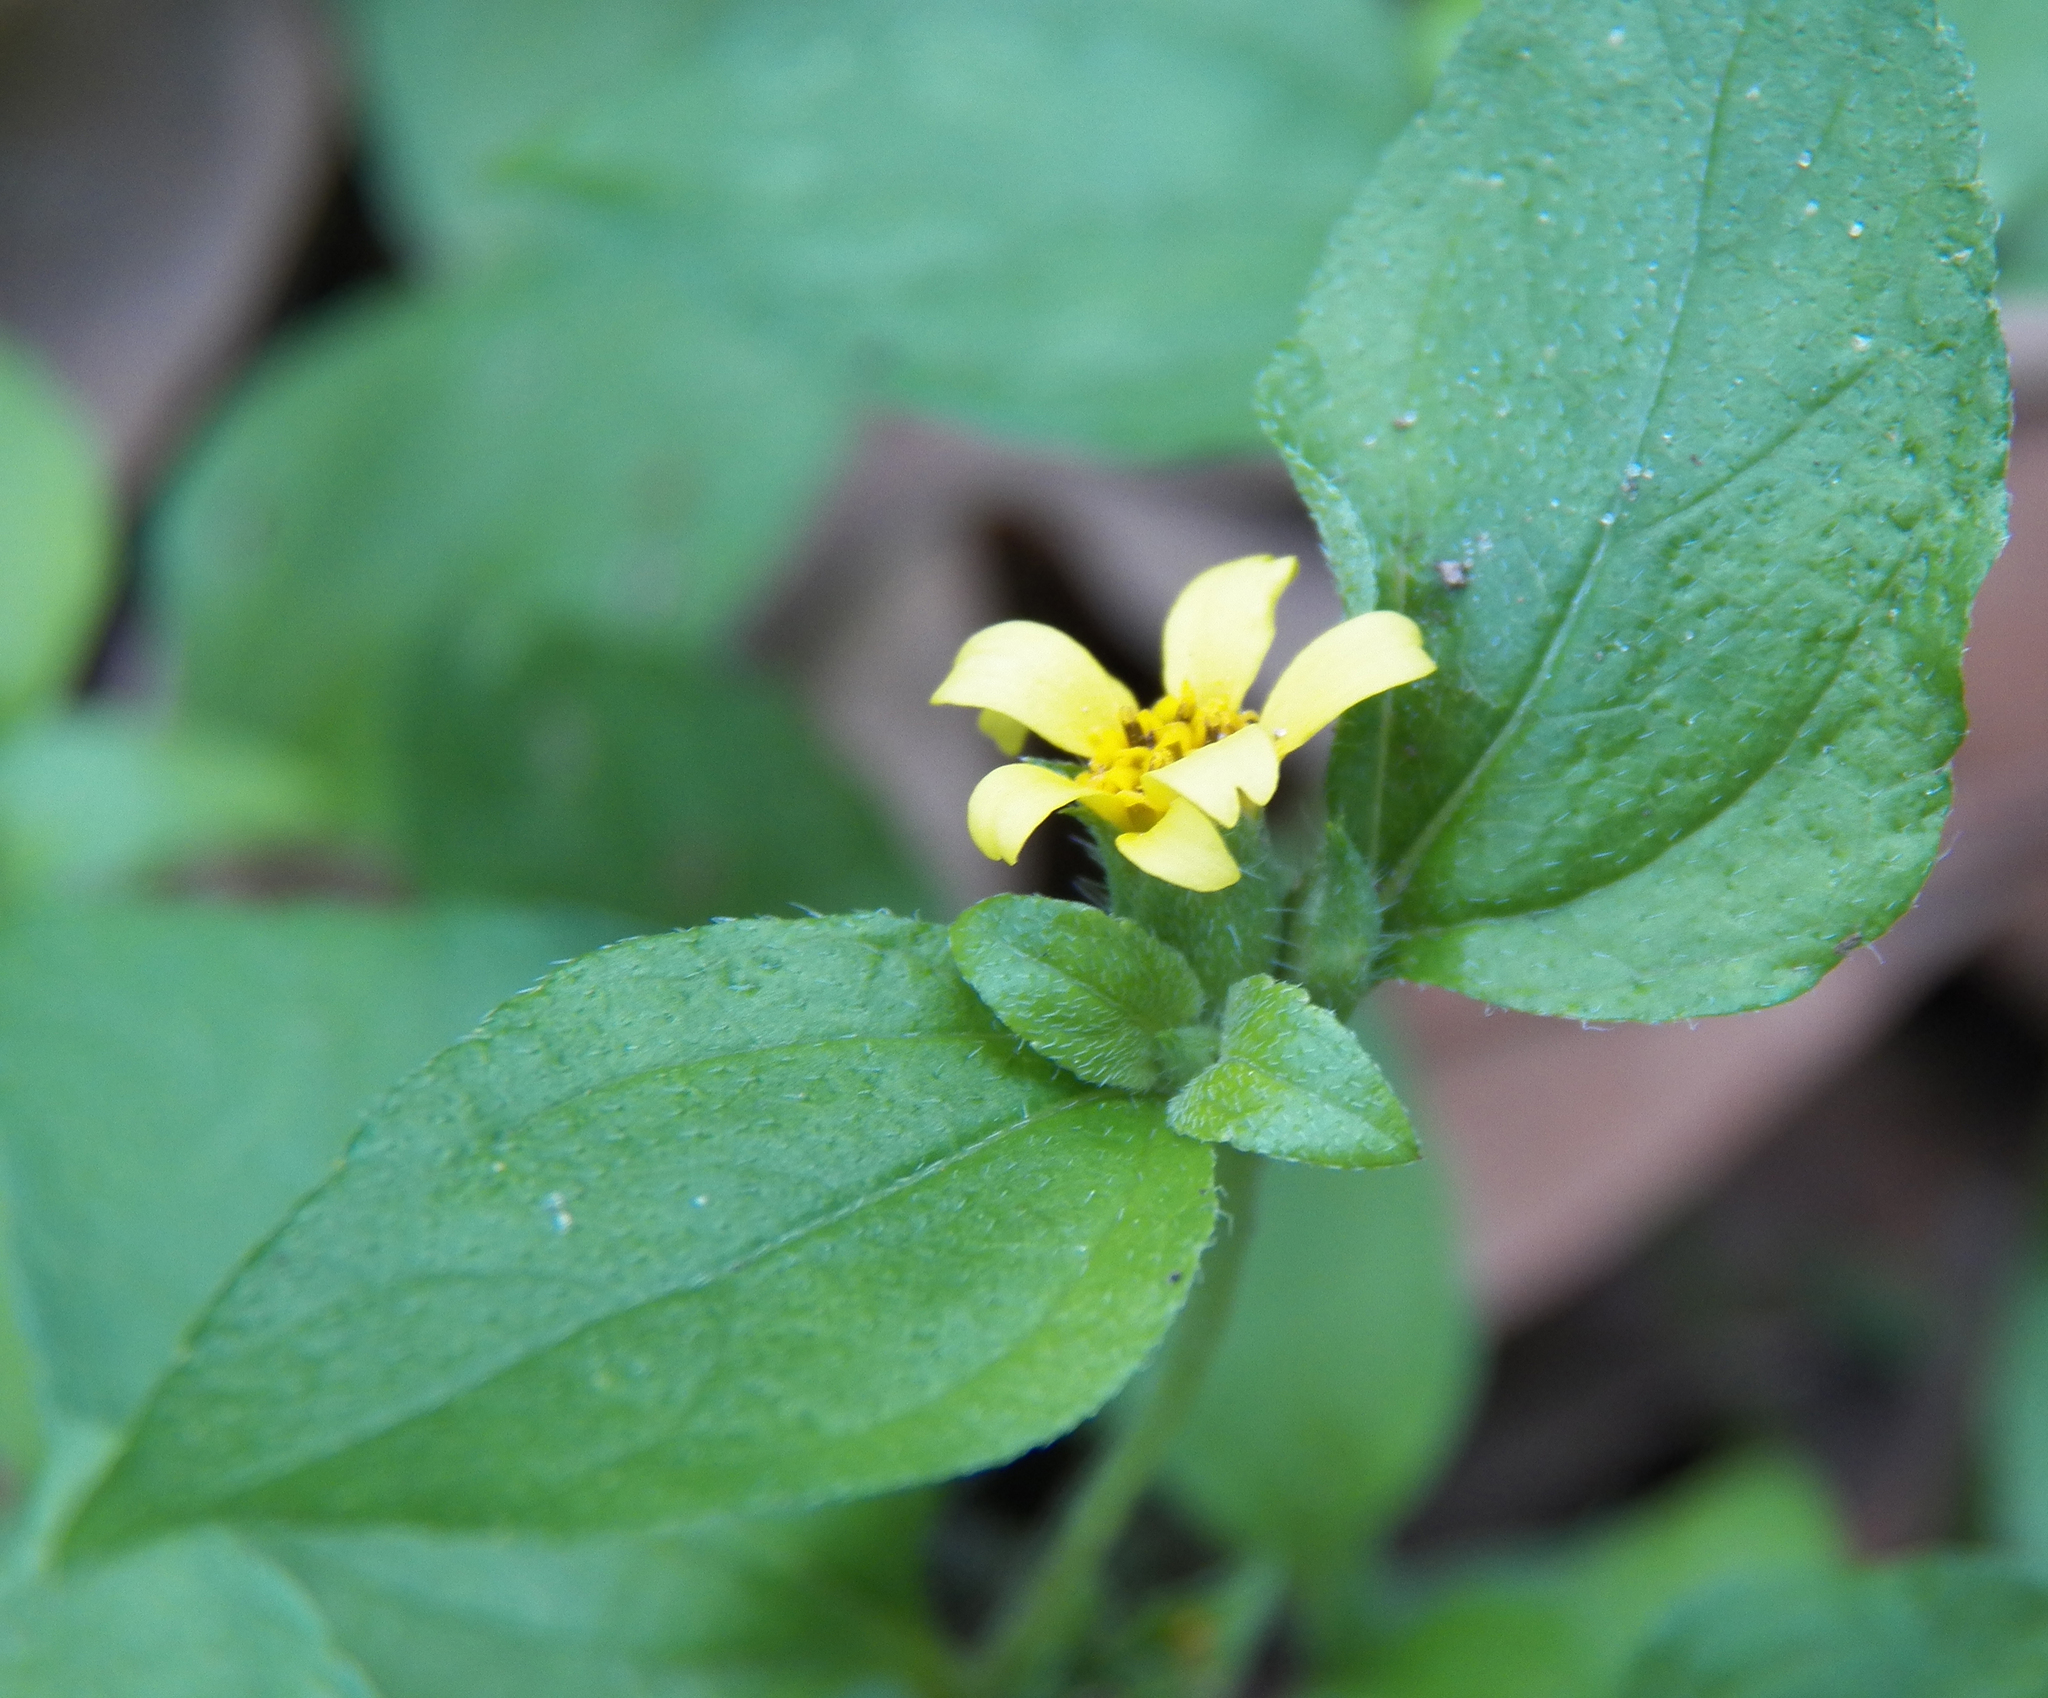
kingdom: Plantae
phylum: Tracheophyta
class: Magnoliopsida
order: Asterales
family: Asteraceae
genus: Calyptocarpus
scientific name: Calyptocarpus vialis
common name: Straggler daisy
